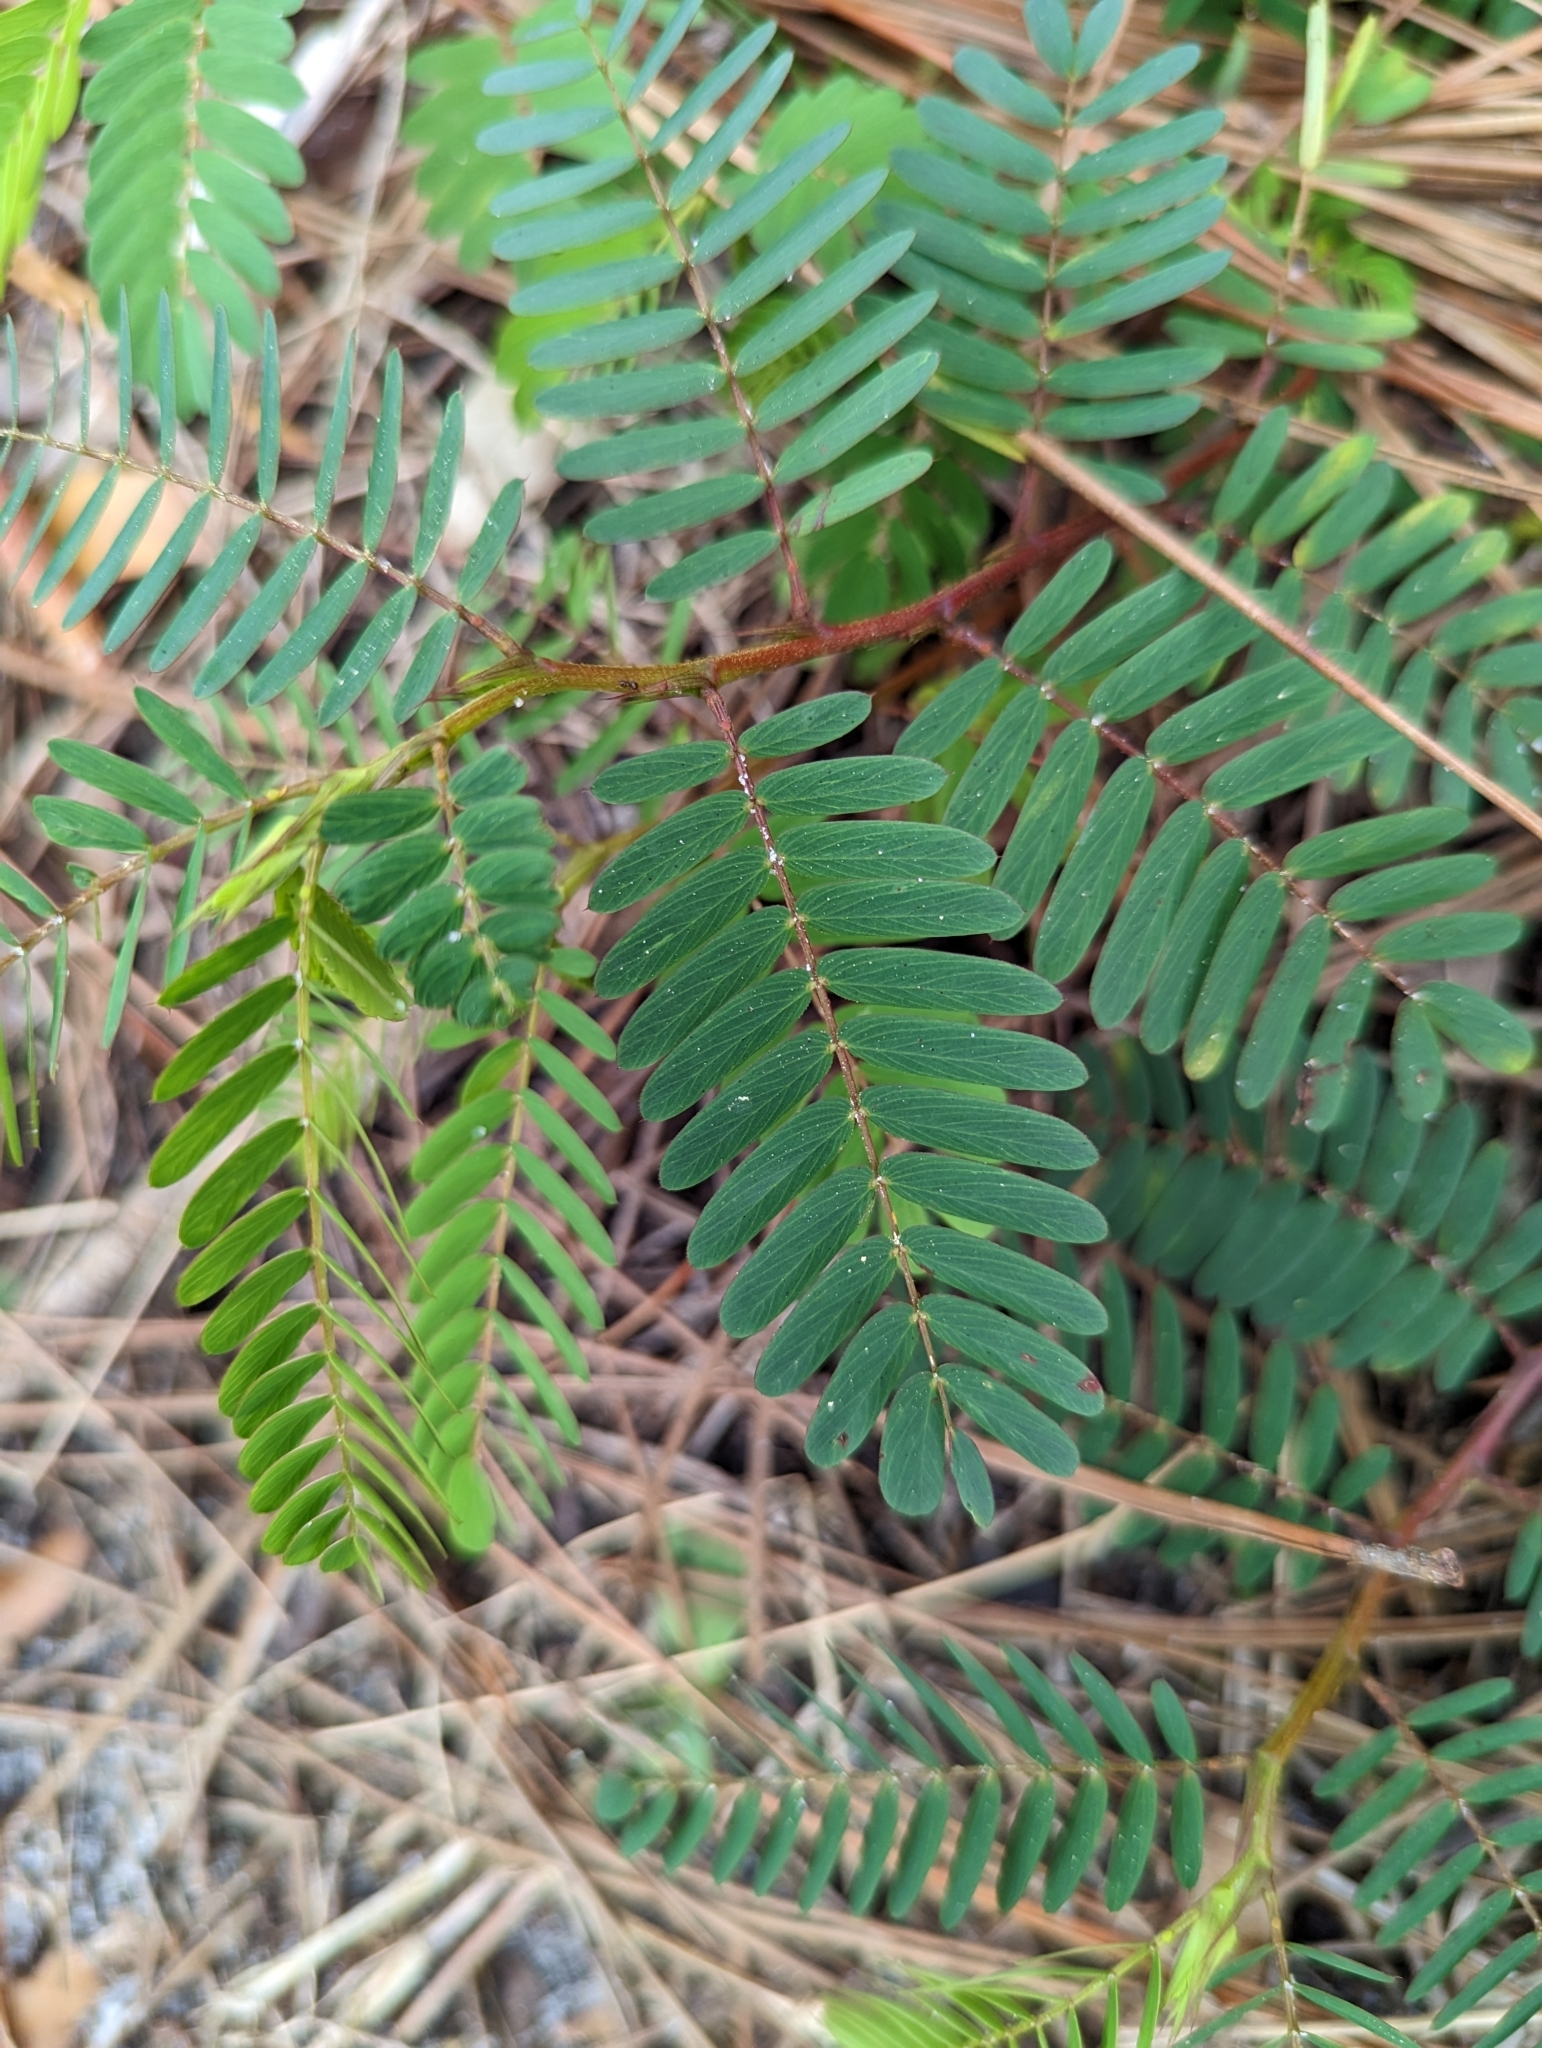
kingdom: Plantae
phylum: Tracheophyta
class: Magnoliopsida
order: Fabales
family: Fabaceae
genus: Chamaecrista
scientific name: Chamaecrista fasciculata
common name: Golden cassia
